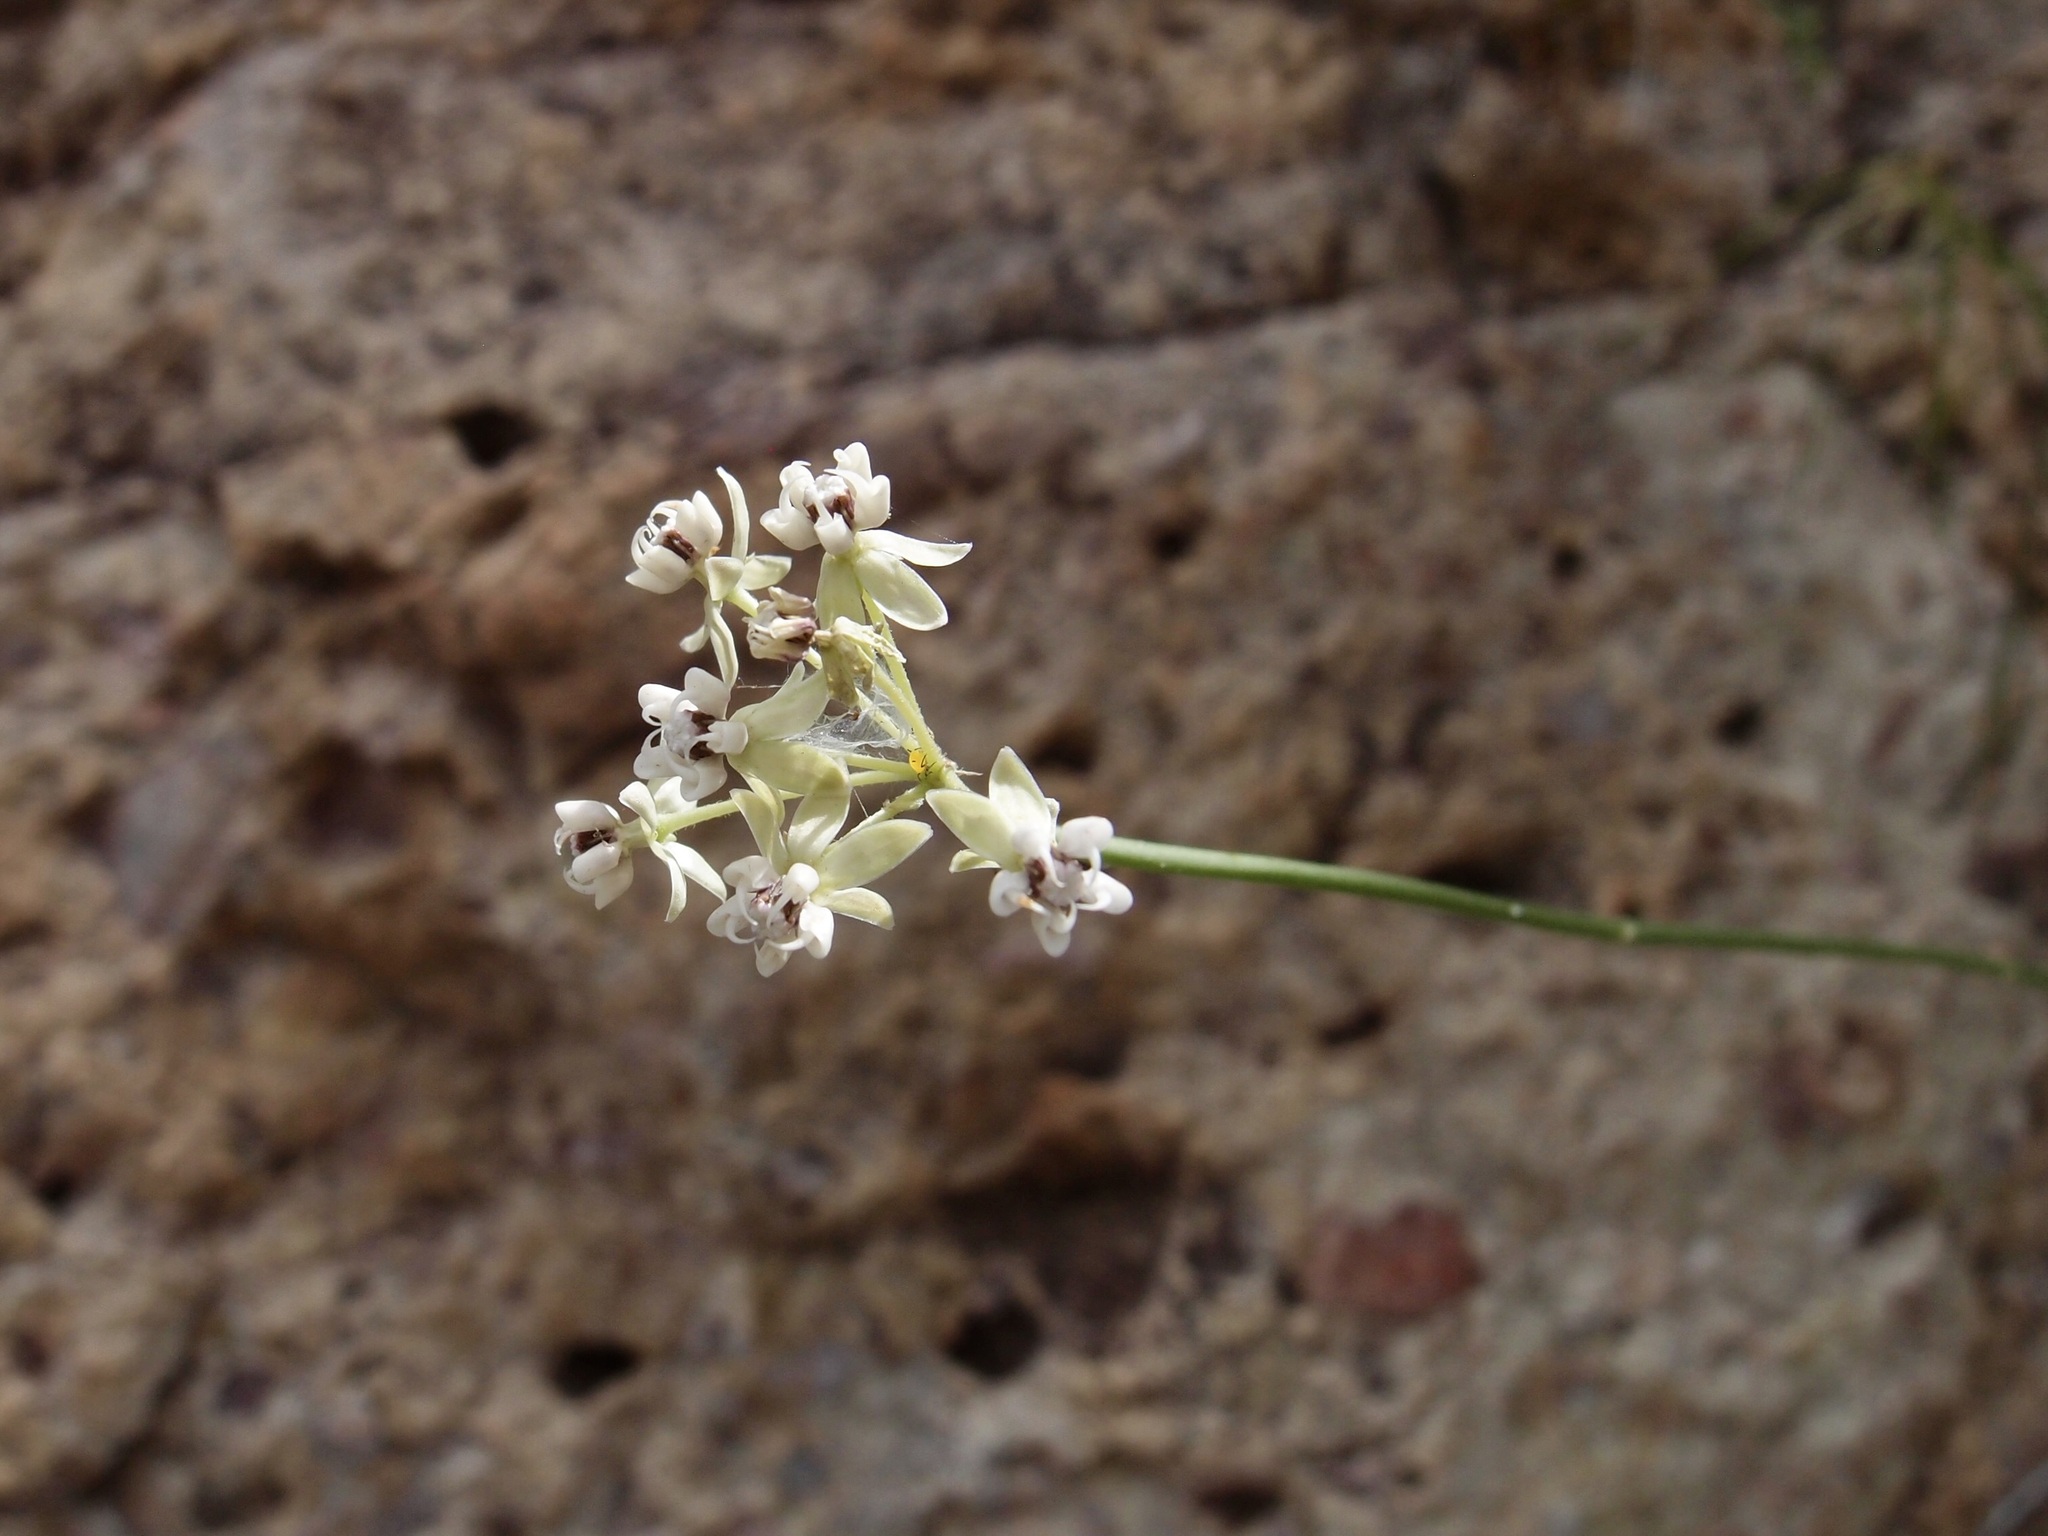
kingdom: Plantae
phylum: Tracheophyta
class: Magnoliopsida
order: Gentianales
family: Apocynaceae
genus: Asclepias
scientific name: Asclepias leptopus
